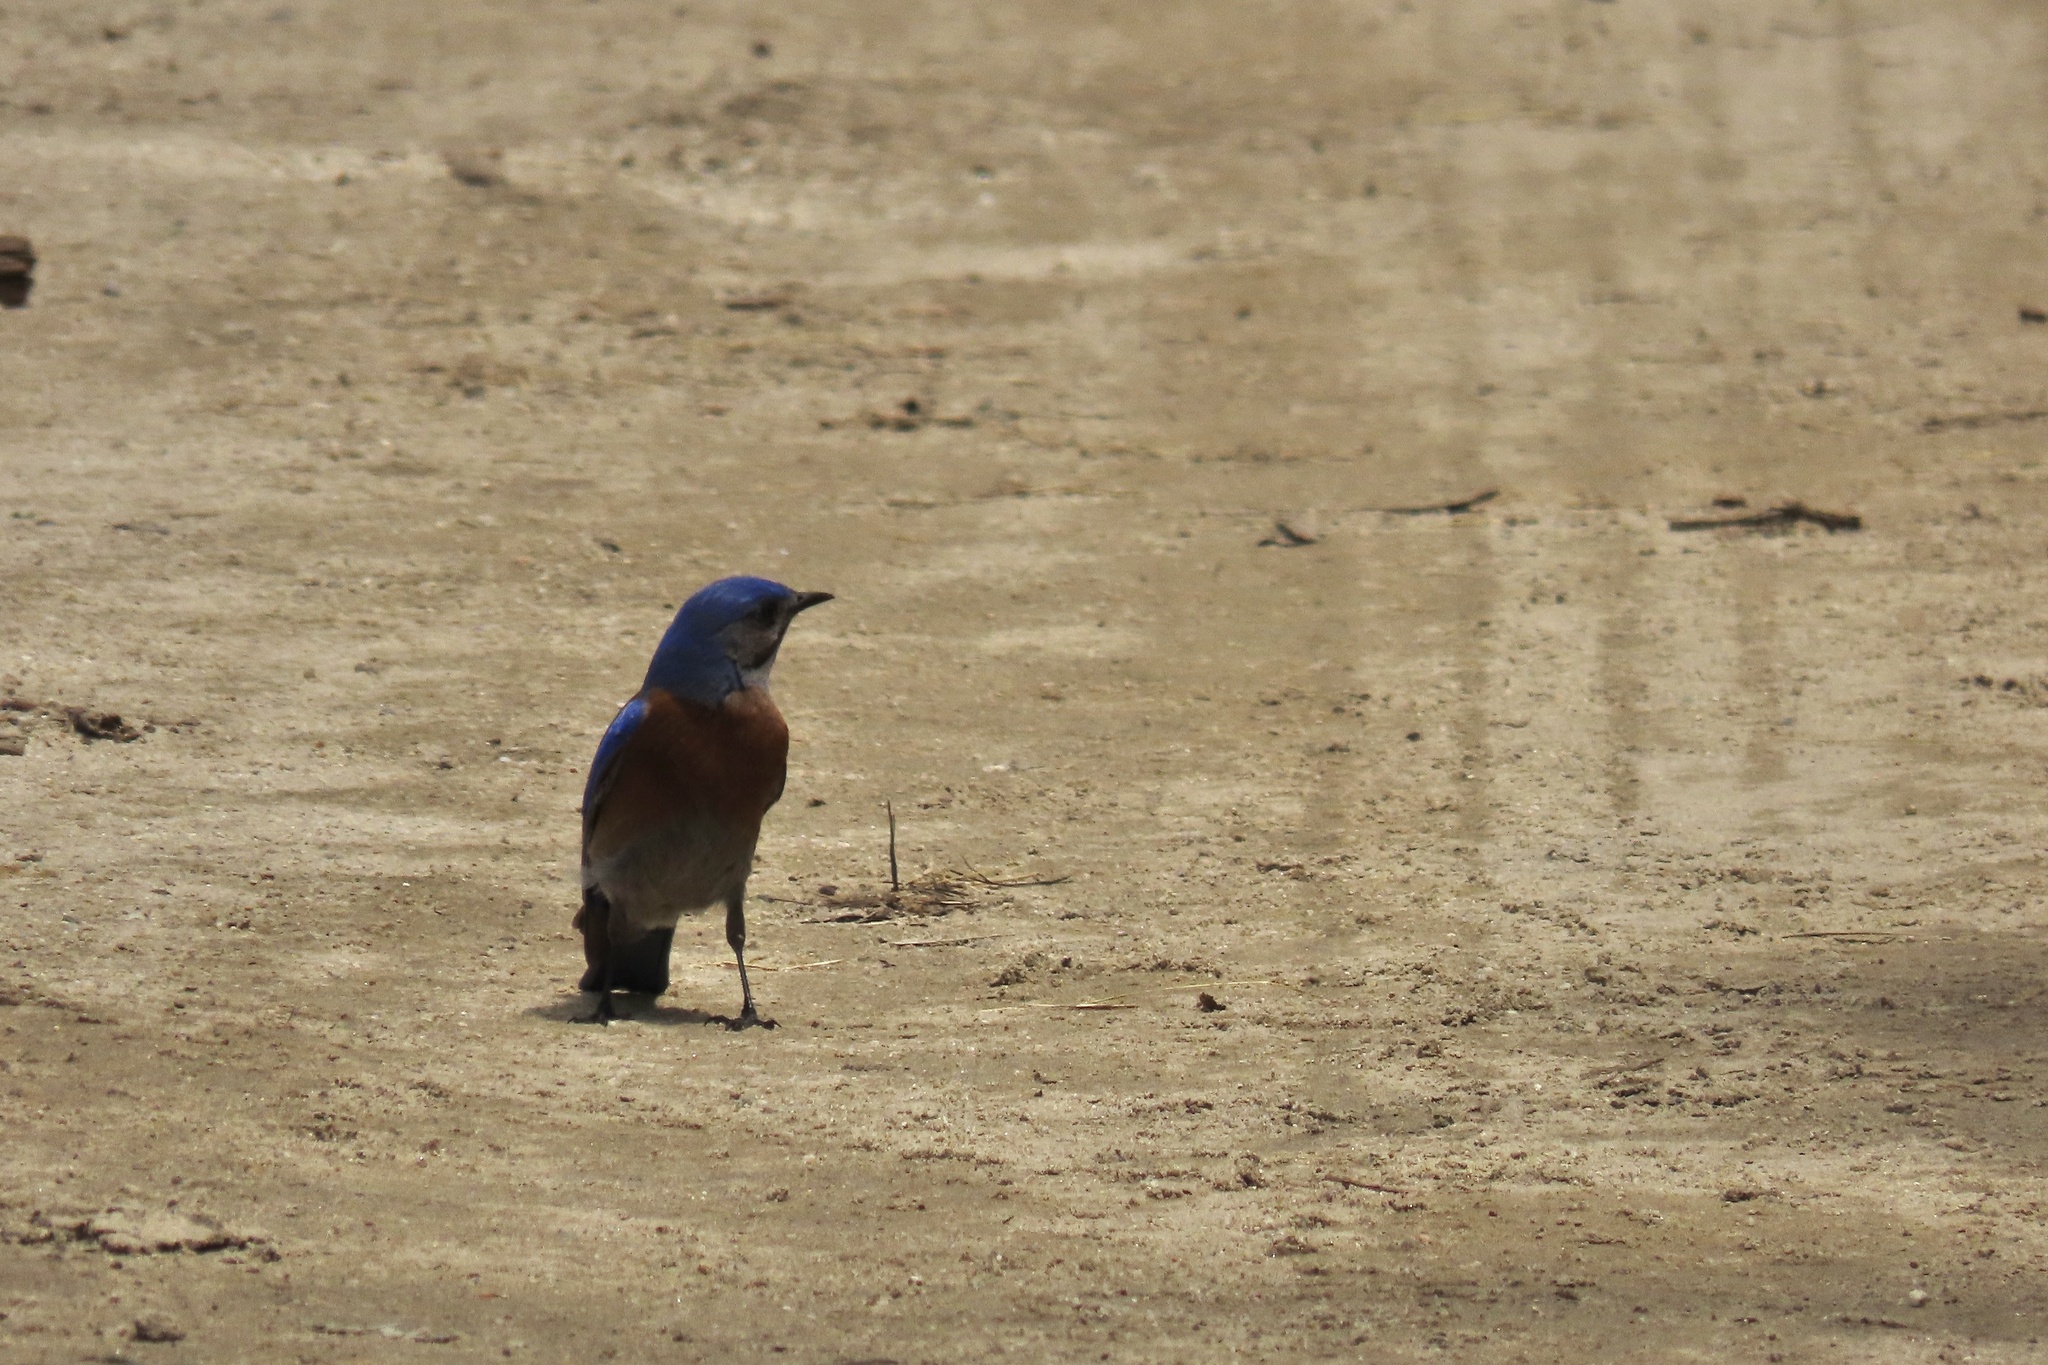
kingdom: Animalia
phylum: Chordata
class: Aves
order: Passeriformes
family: Turdidae
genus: Sialia
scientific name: Sialia mexicana
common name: Western bluebird
